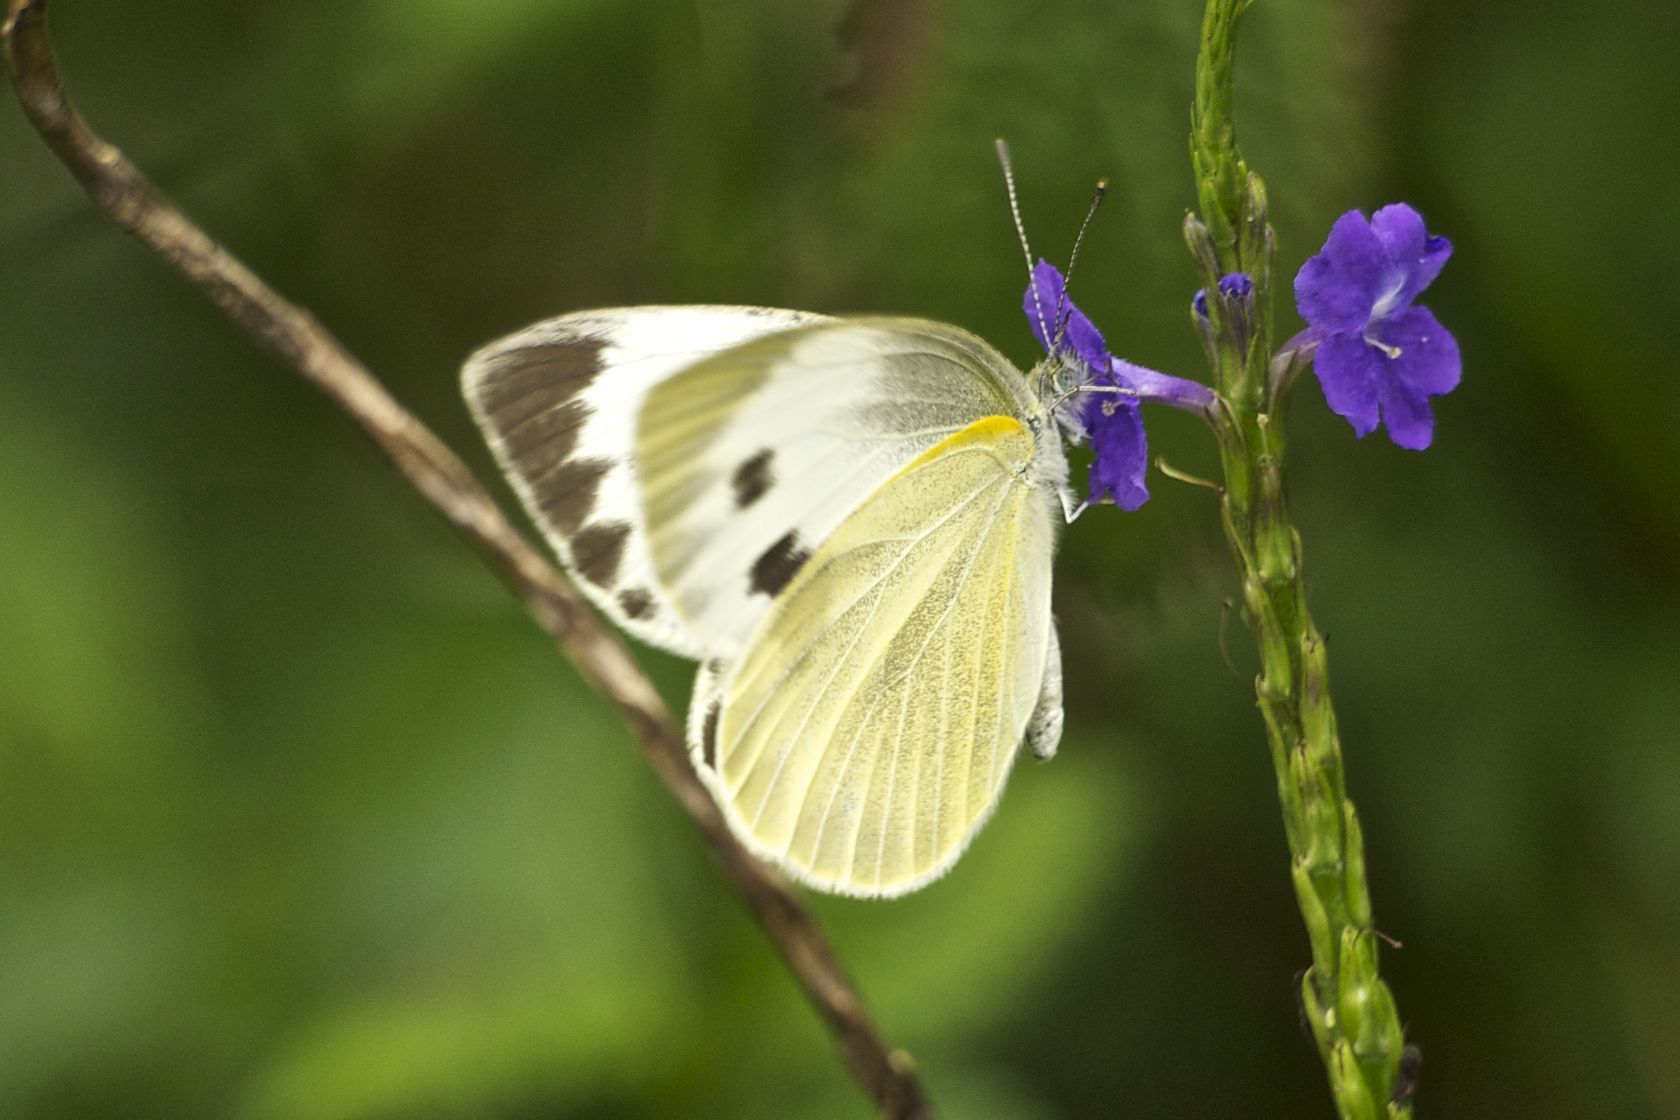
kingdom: Animalia
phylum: Arthropoda
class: Insecta
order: Lepidoptera
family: Pieridae
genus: Pieris
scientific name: Pieris canidia
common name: Indian cabbage white
